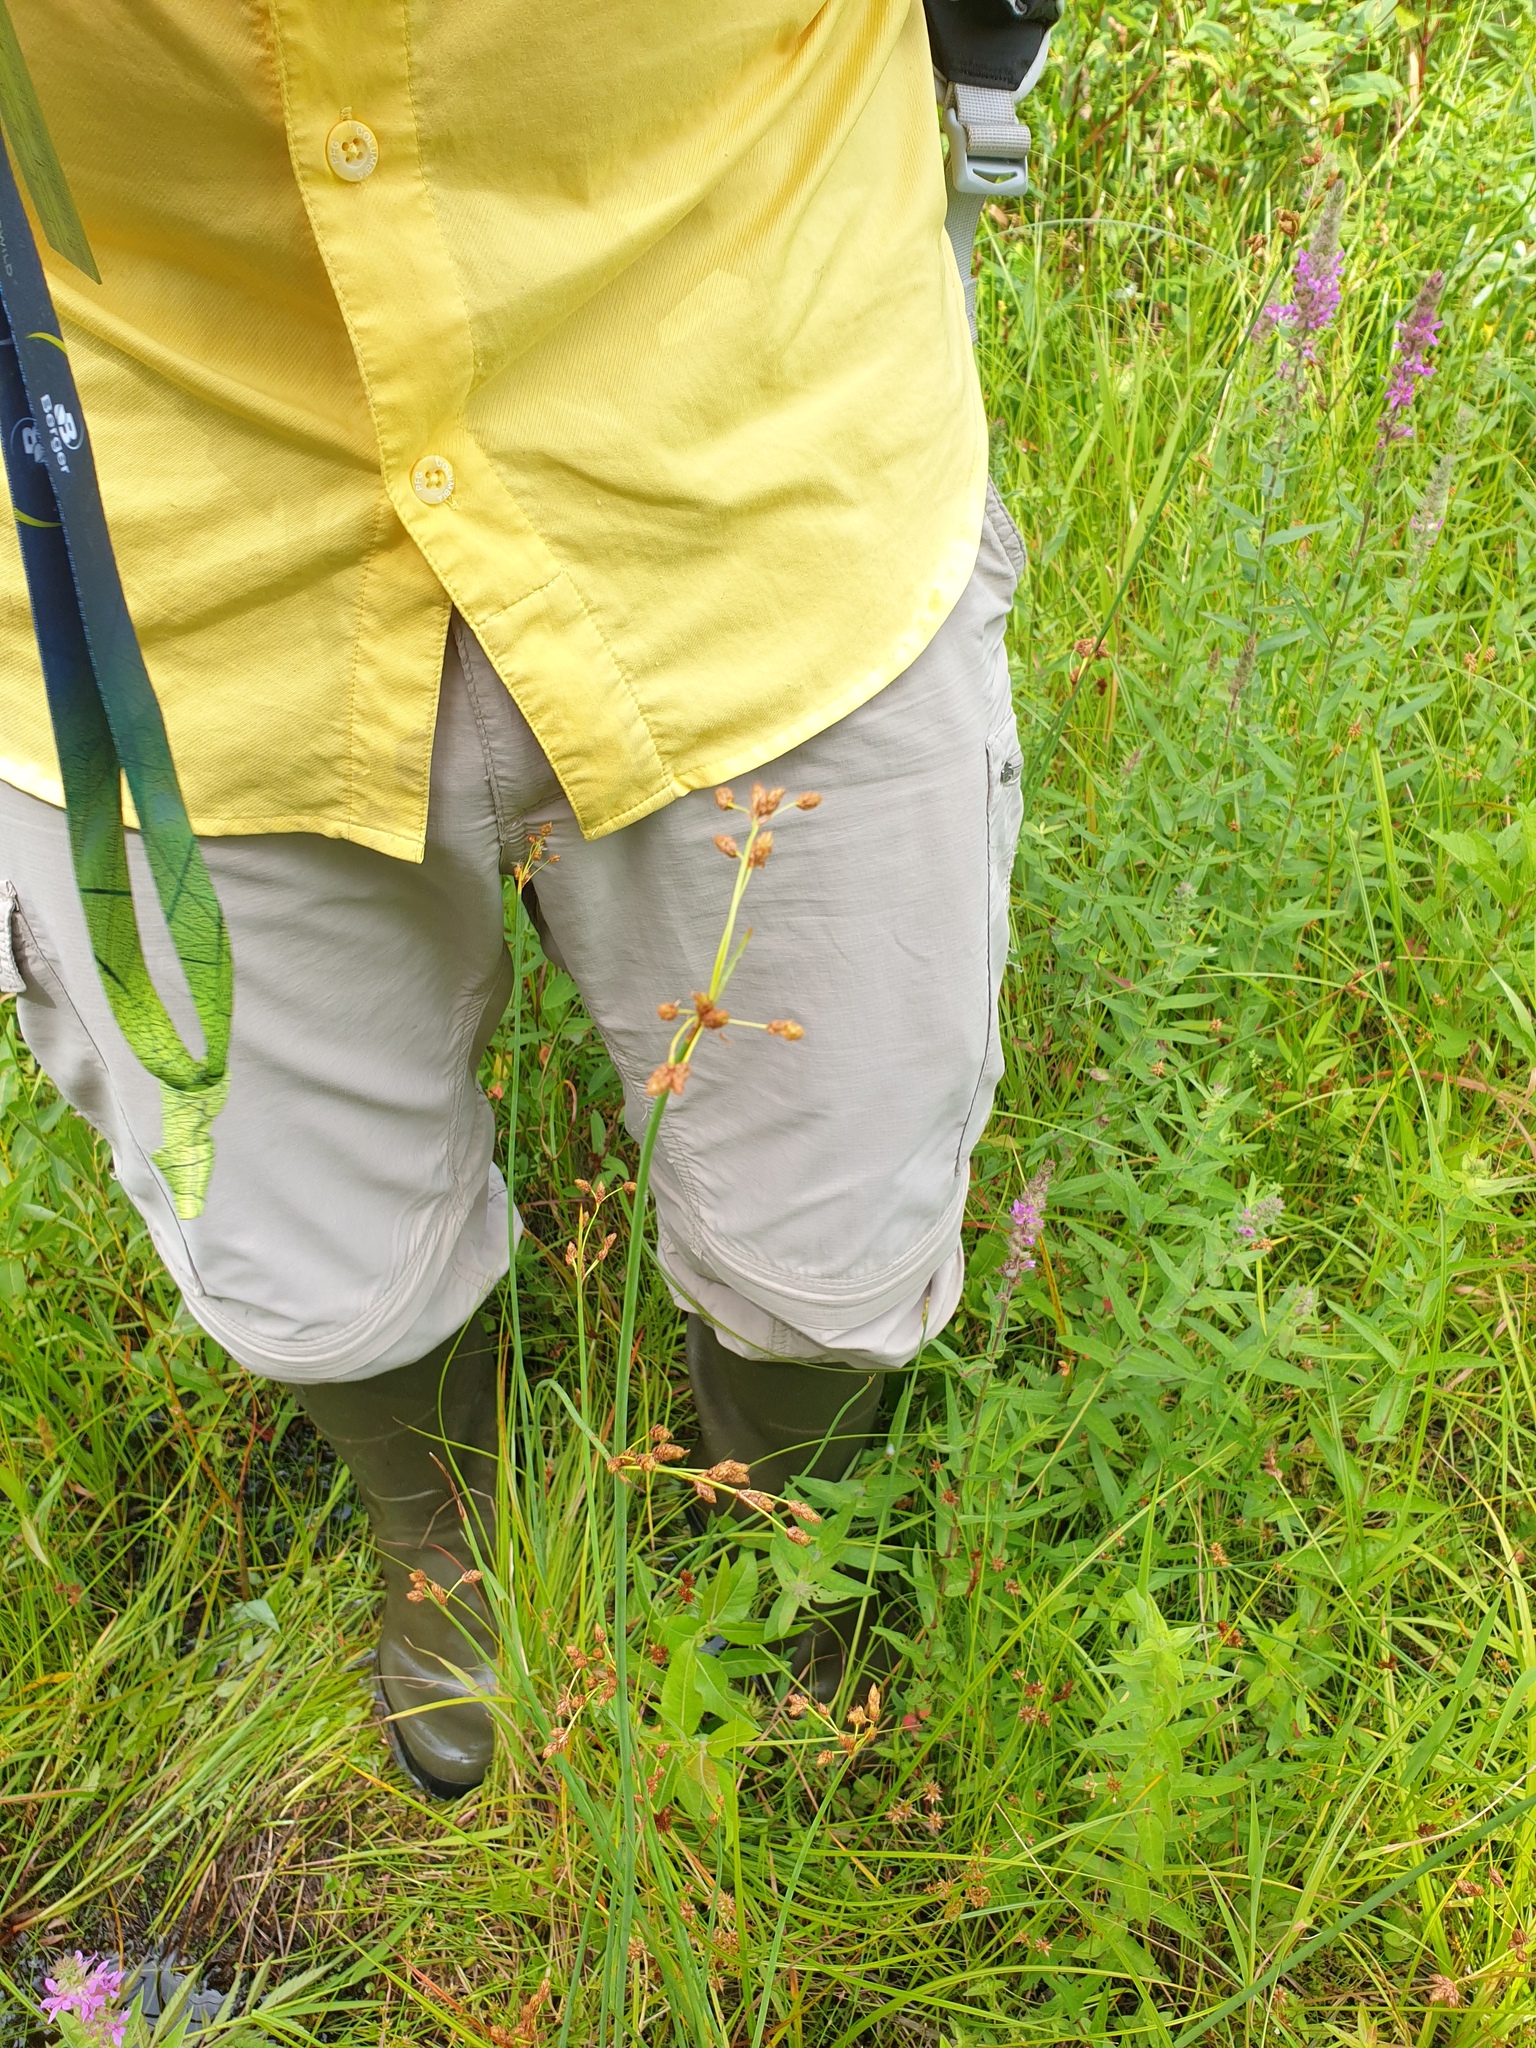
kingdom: Plantae
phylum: Tracheophyta
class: Magnoliopsida
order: Myrtales
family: Lythraceae
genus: Lythrum
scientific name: Lythrum salicaria
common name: Purple loosestrife
